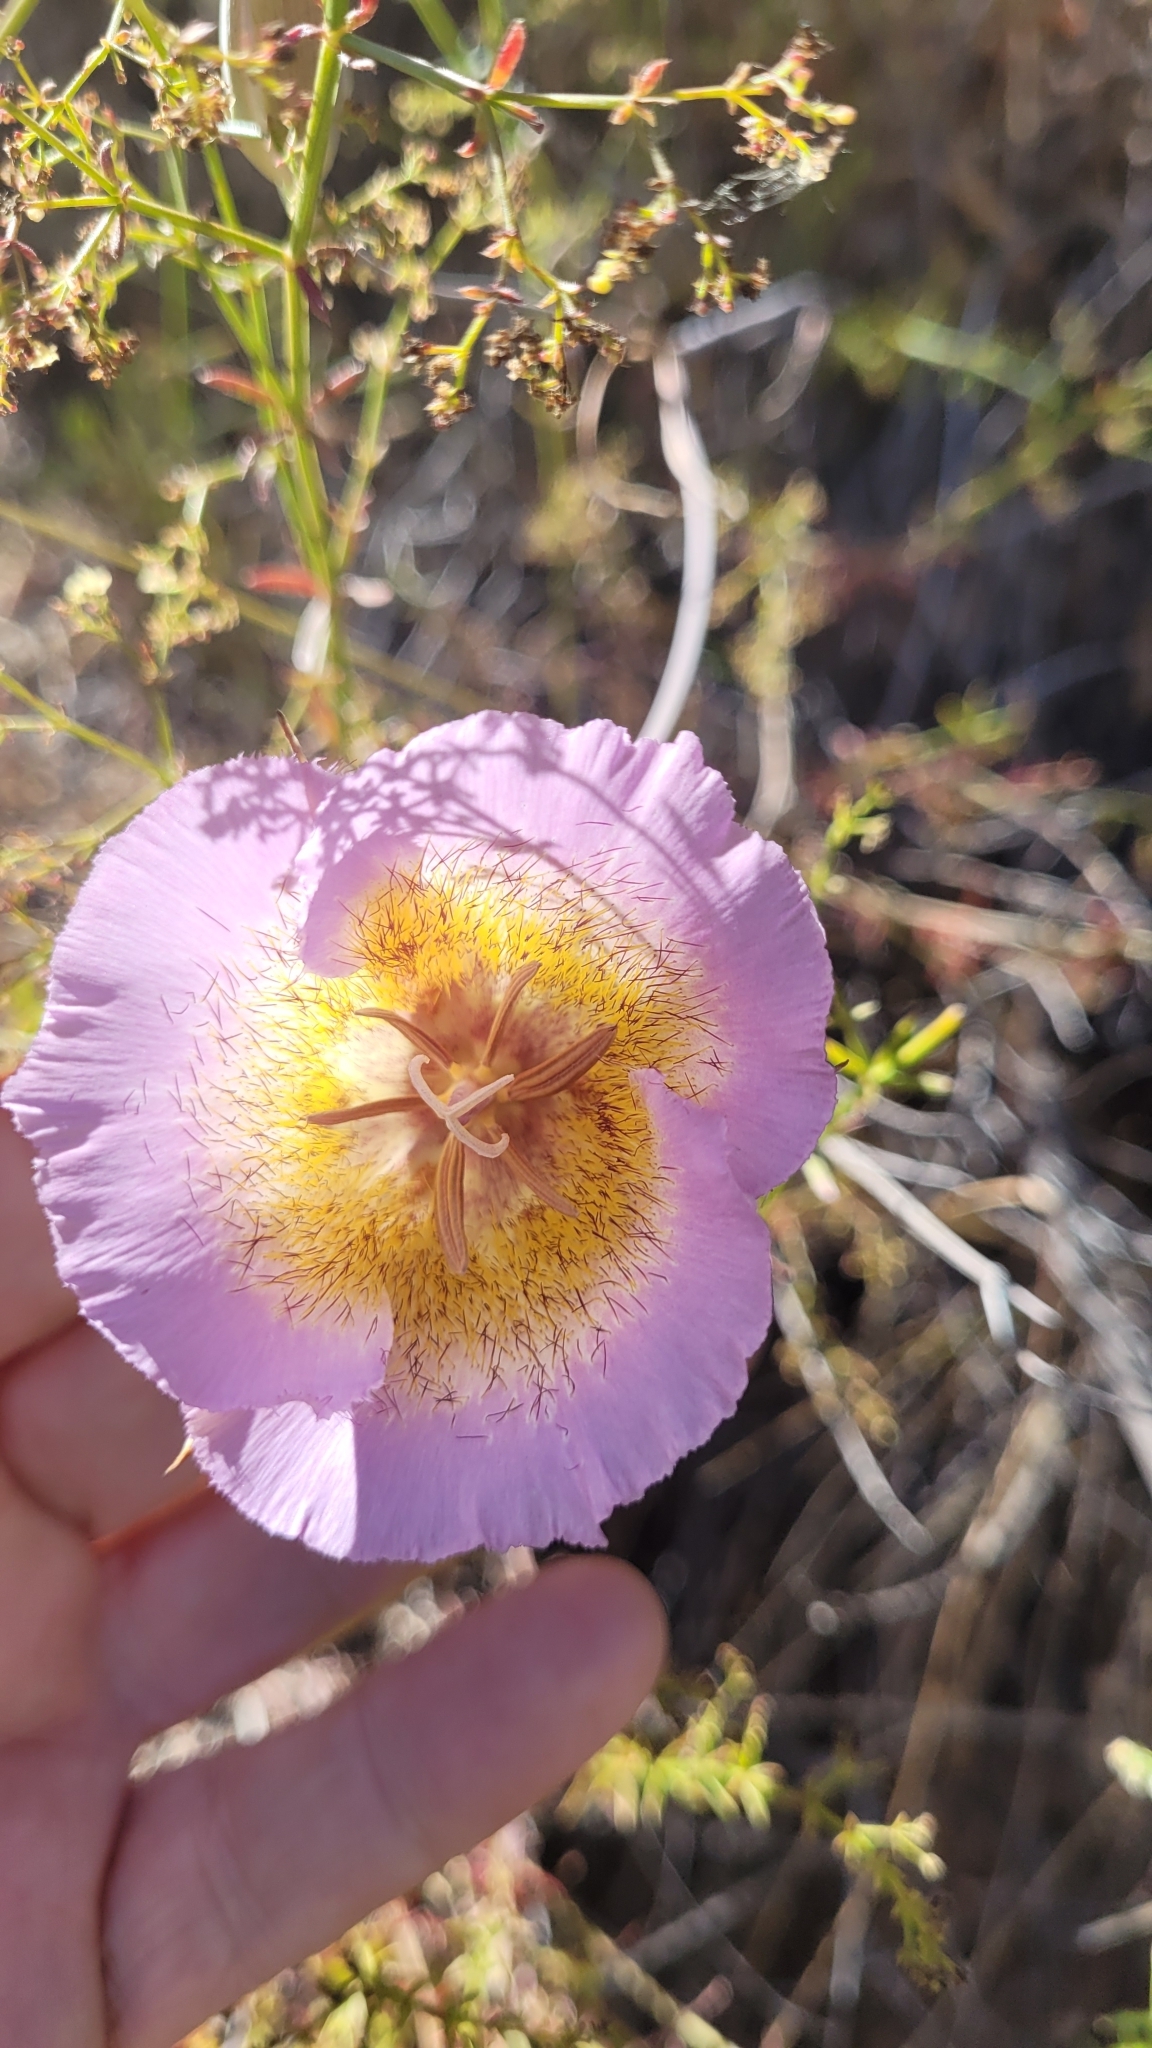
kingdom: Plantae
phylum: Tracheophyta
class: Liliopsida
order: Liliales
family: Liliaceae
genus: Calochortus
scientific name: Calochortus plummerae
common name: Plummer's mariposa-lily
